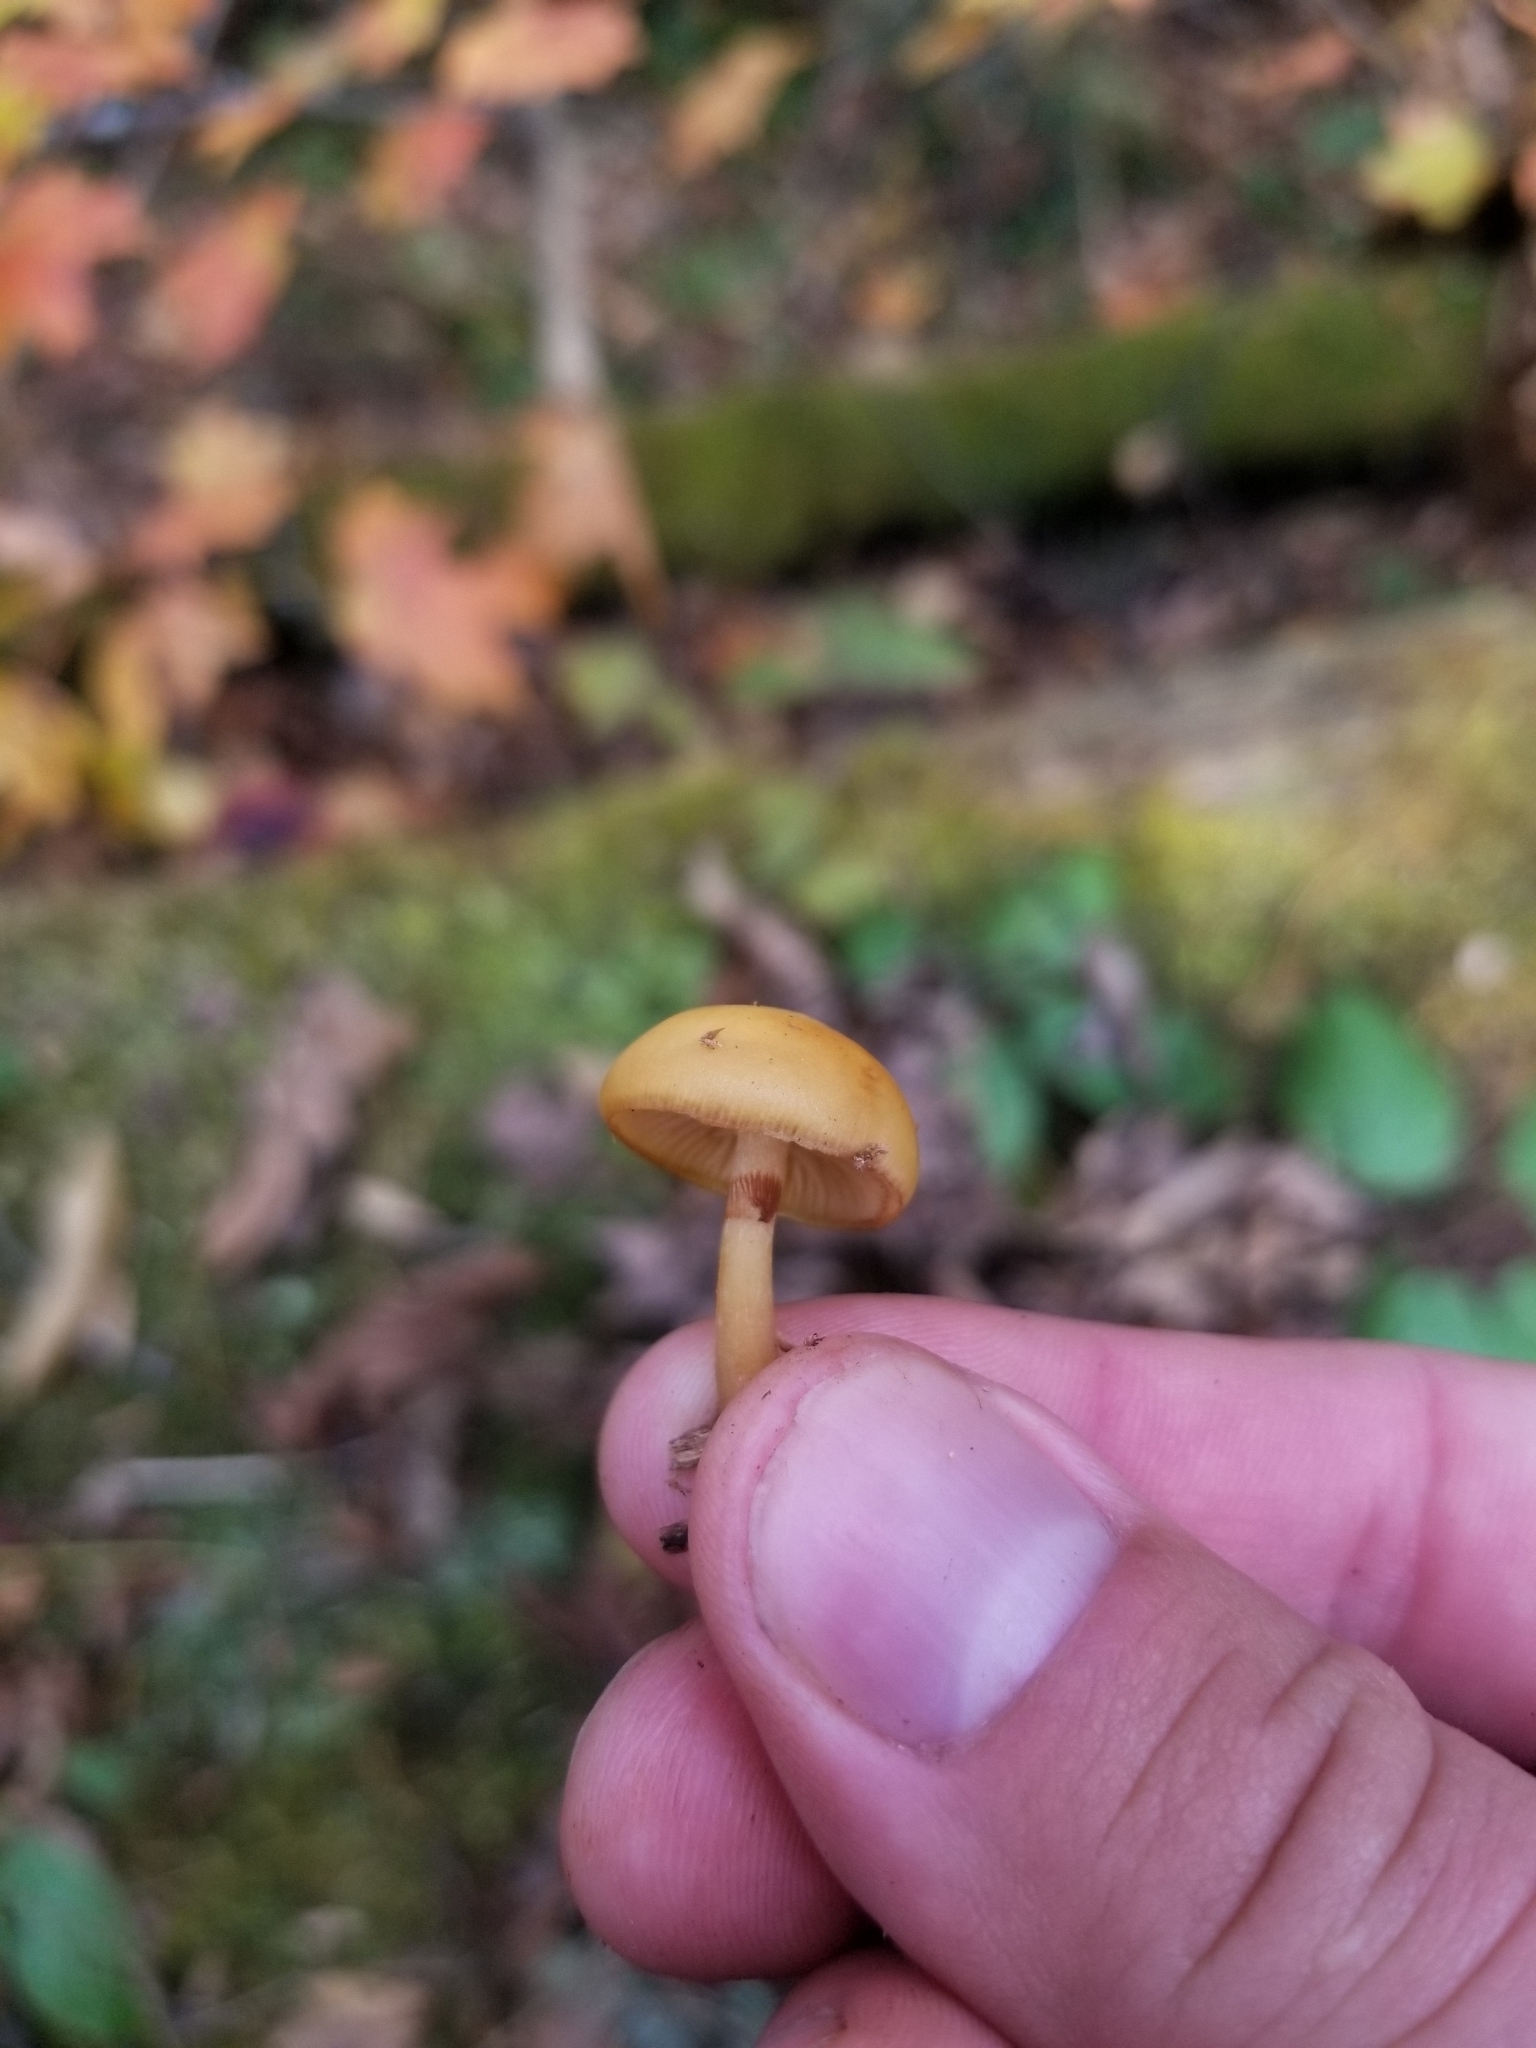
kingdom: Fungi
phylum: Basidiomycota
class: Agaricomycetes
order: Agaricales
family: Hymenogastraceae
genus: Galerina
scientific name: Galerina marginata
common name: Funeral bell
